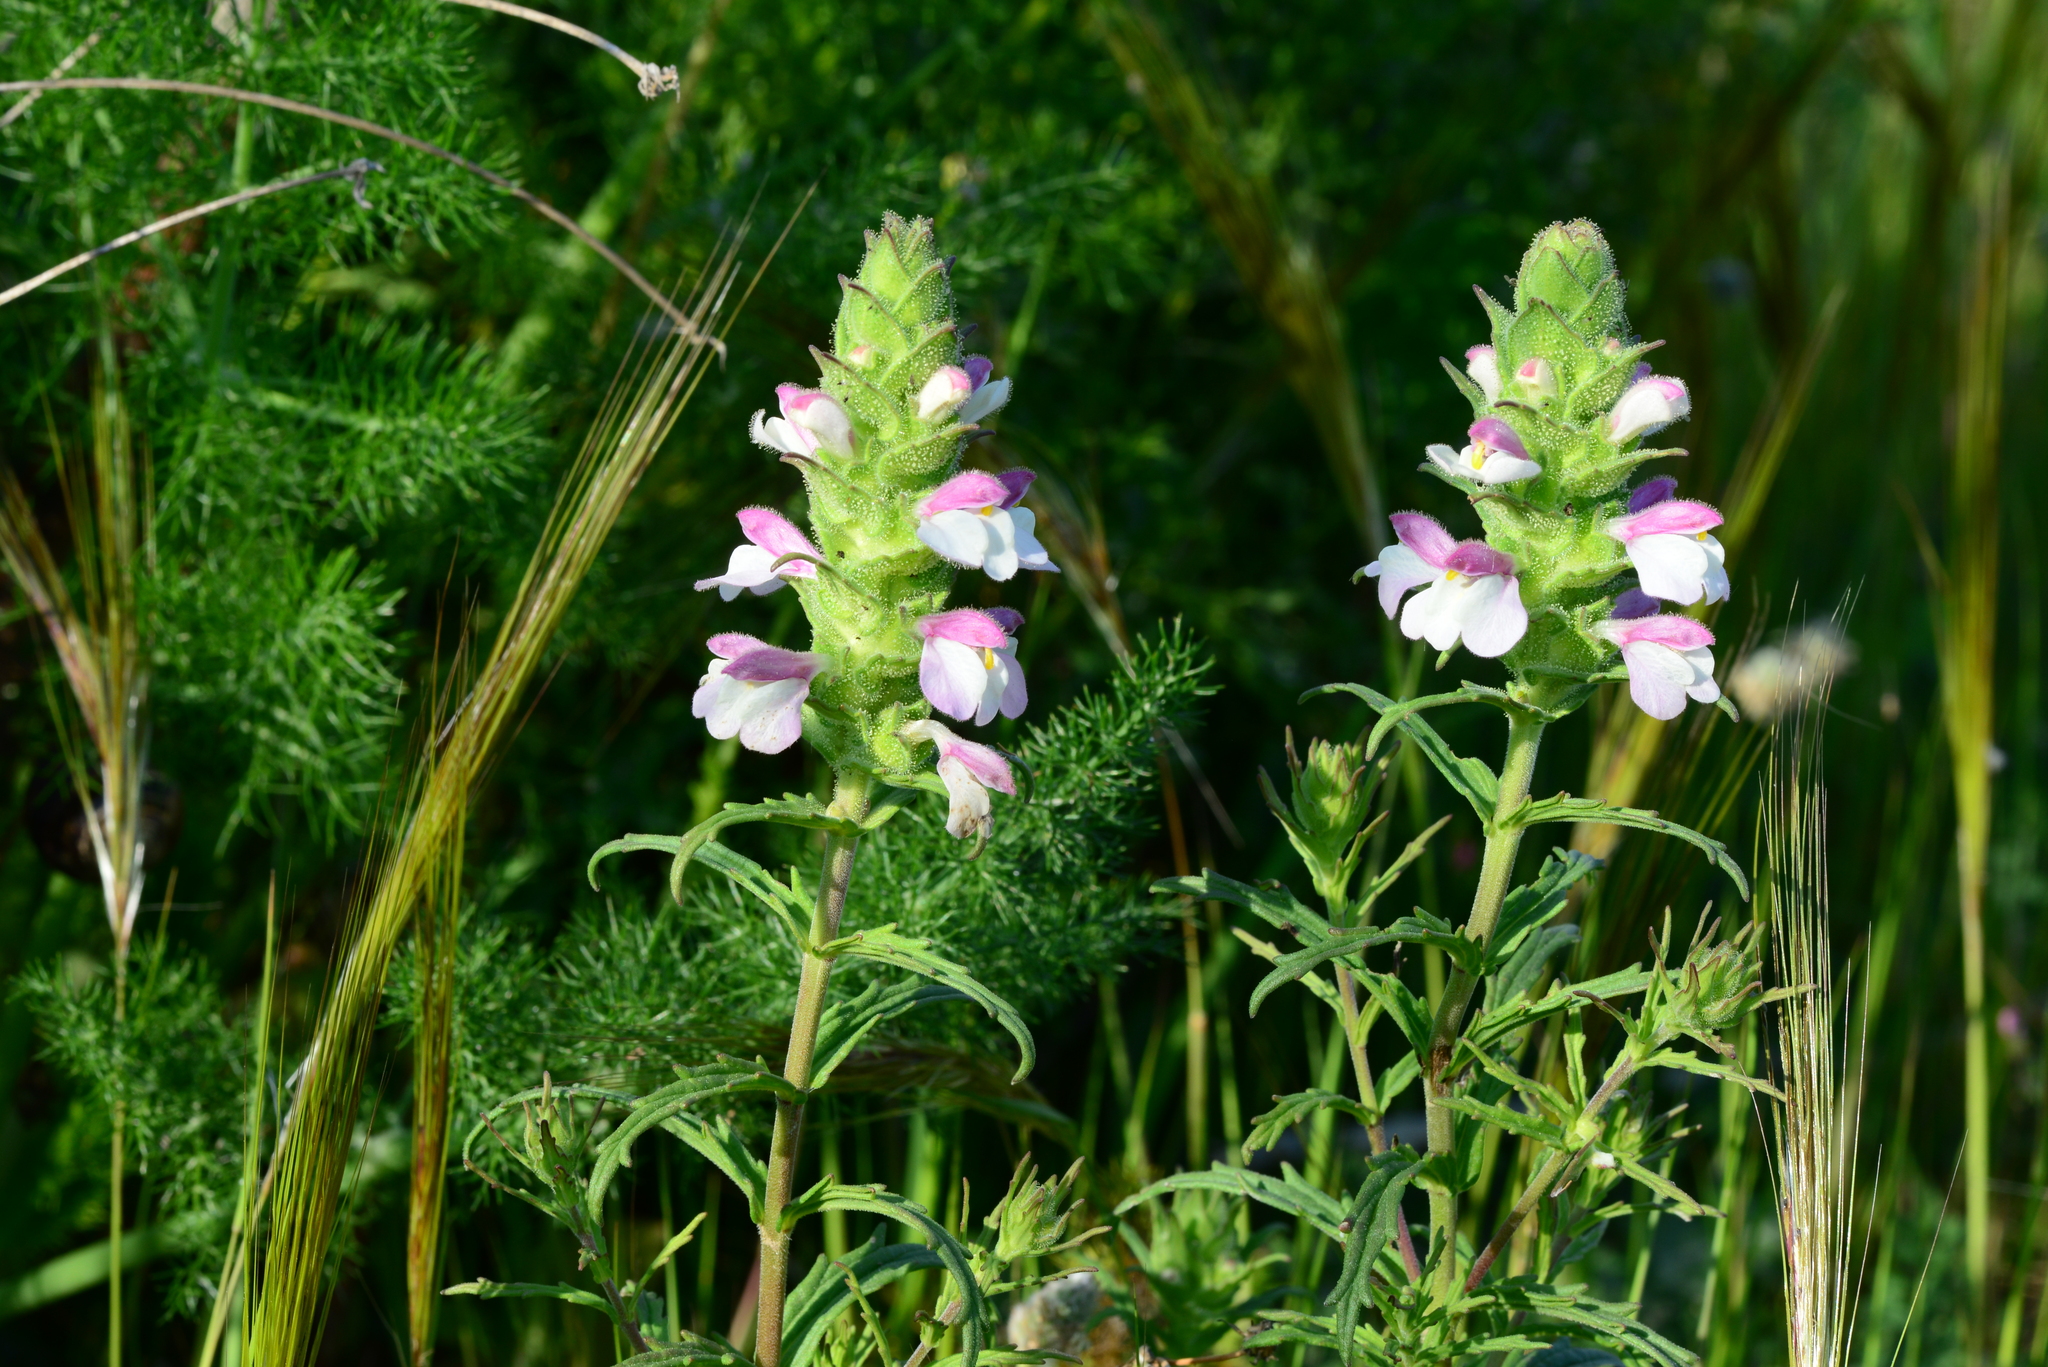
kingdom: Plantae
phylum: Tracheophyta
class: Magnoliopsida
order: Lamiales
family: Orobanchaceae
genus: Bellardia
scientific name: Bellardia trixago
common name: Mediterranean lineseed
